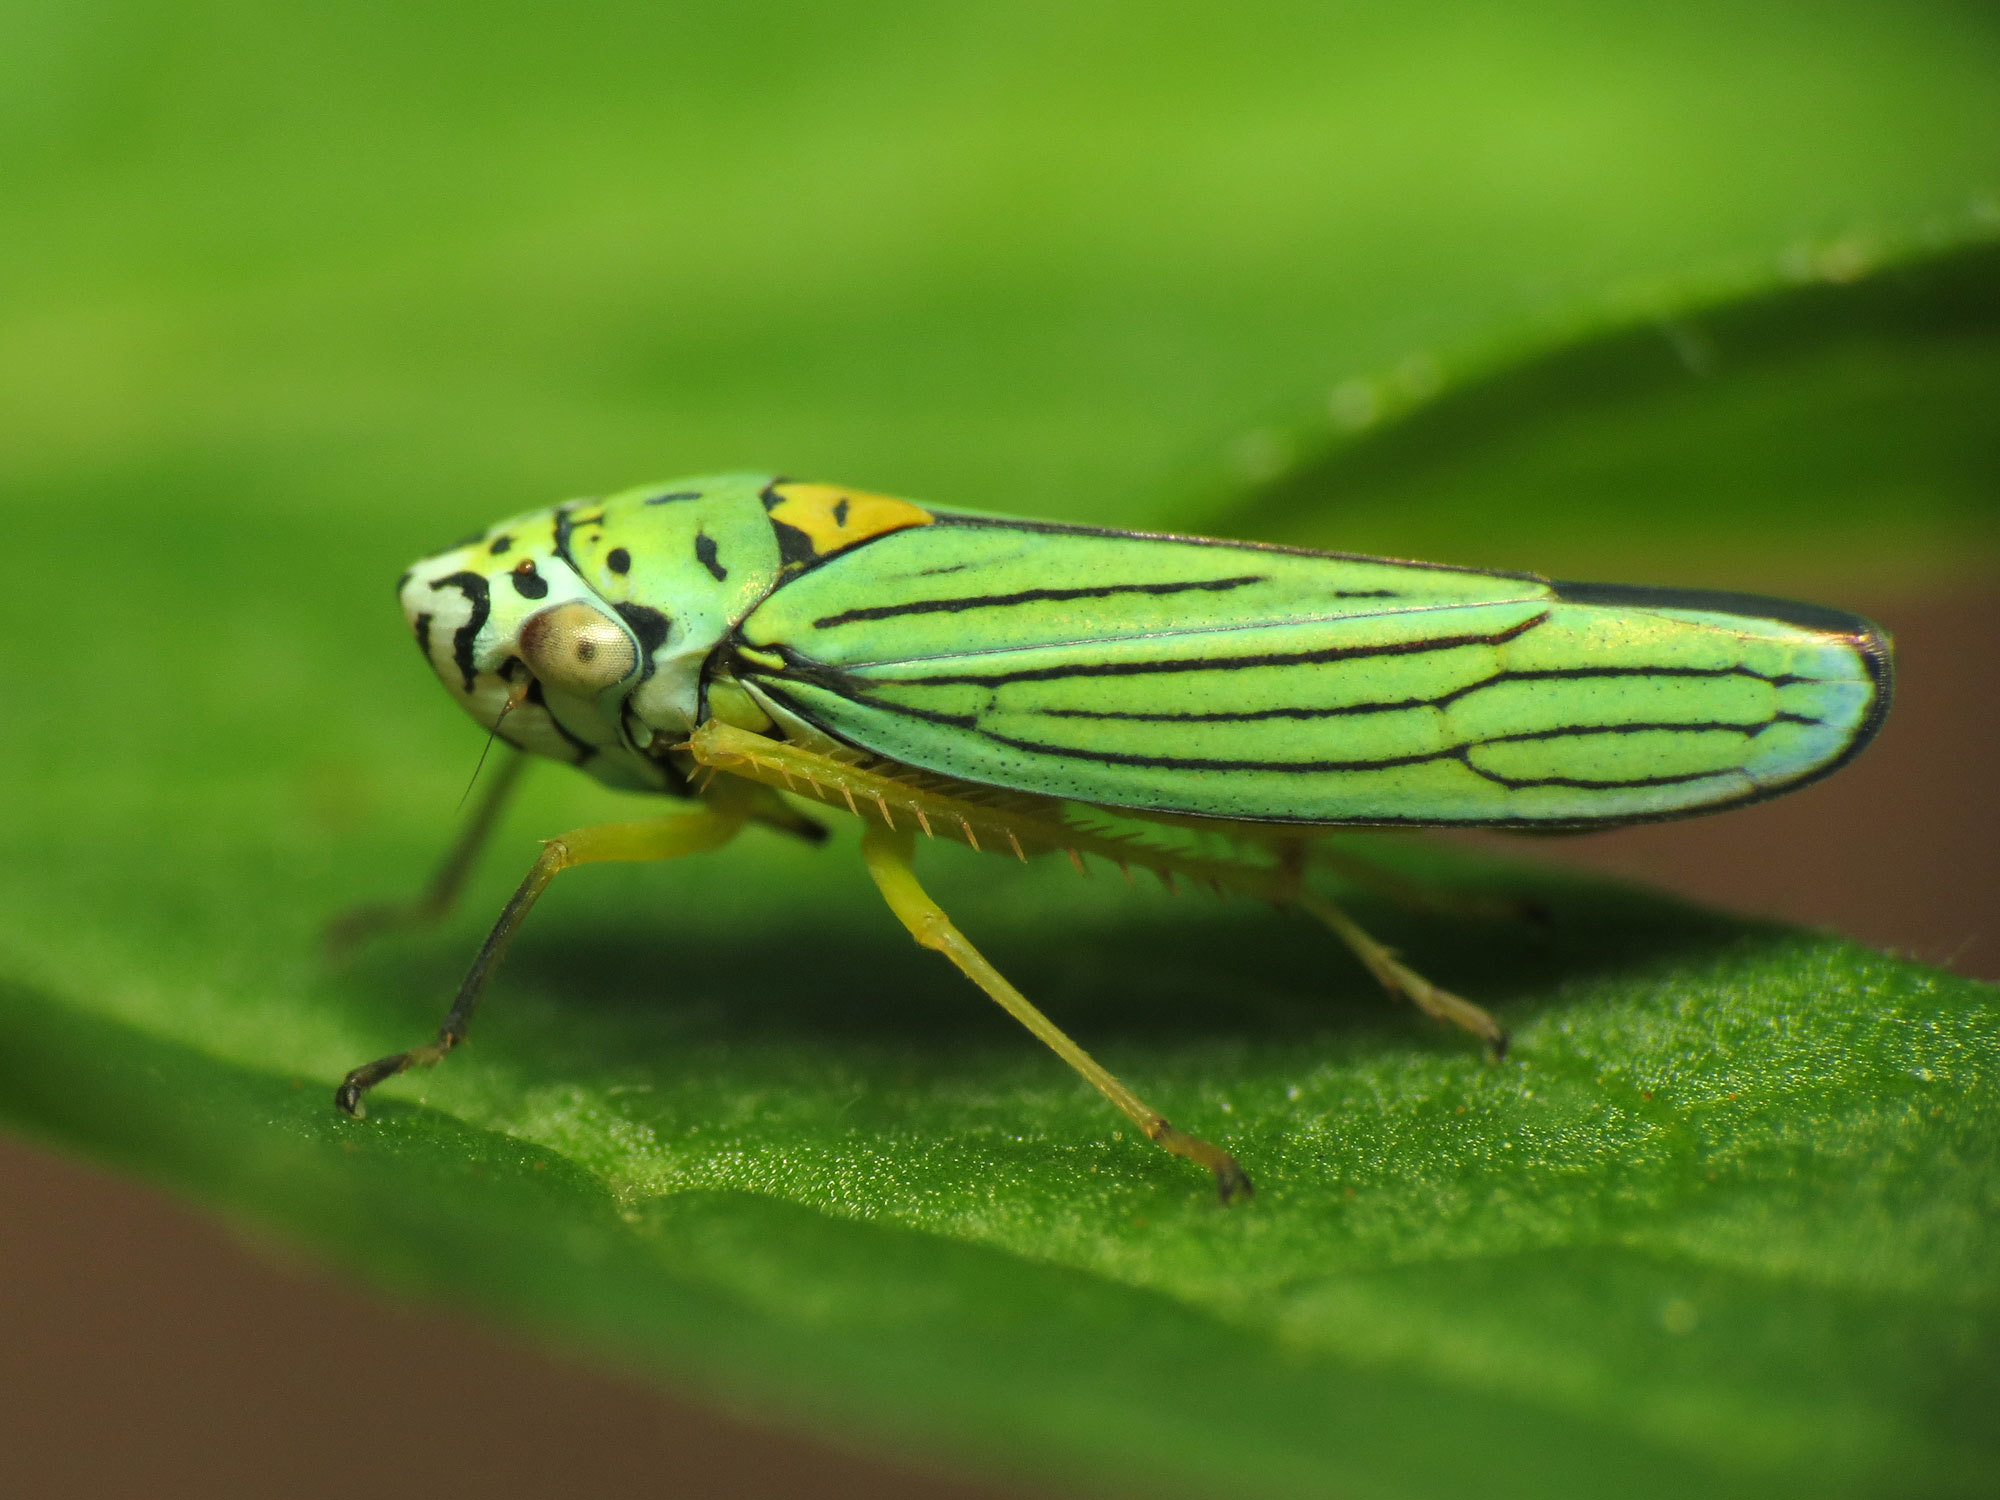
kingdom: Animalia
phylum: Arthropoda
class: Insecta
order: Hemiptera
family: Cicadellidae
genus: Graphocephala
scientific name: Graphocephala atropunctata
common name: Blue-green sharpshooter
